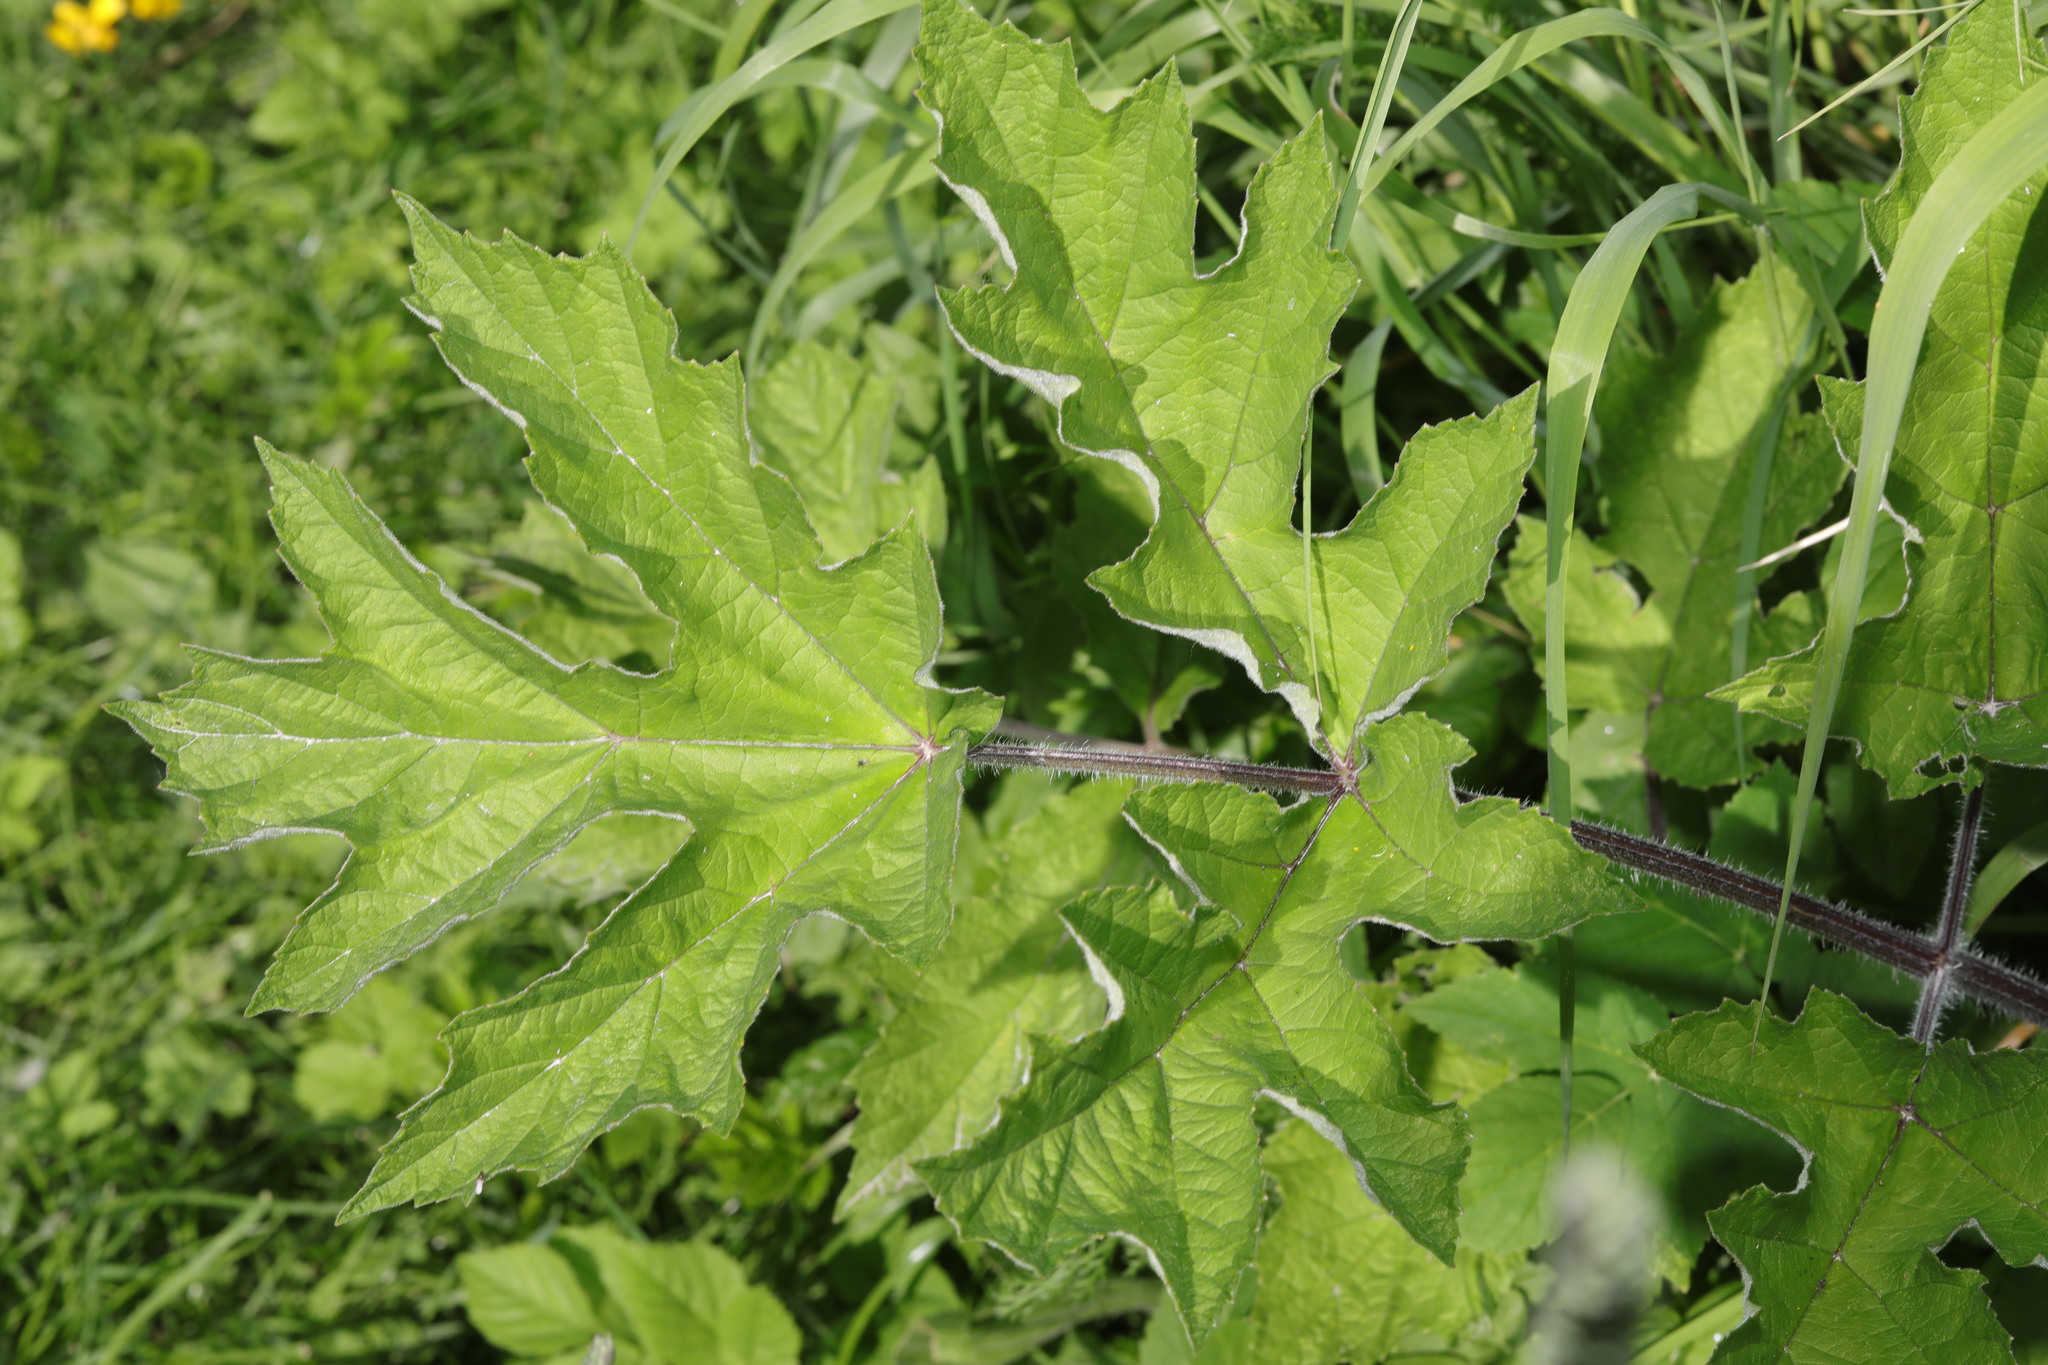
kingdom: Plantae
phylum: Tracheophyta
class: Magnoliopsida
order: Apiales
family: Apiaceae
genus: Heracleum
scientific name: Heracleum sphondylium
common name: Hogweed
